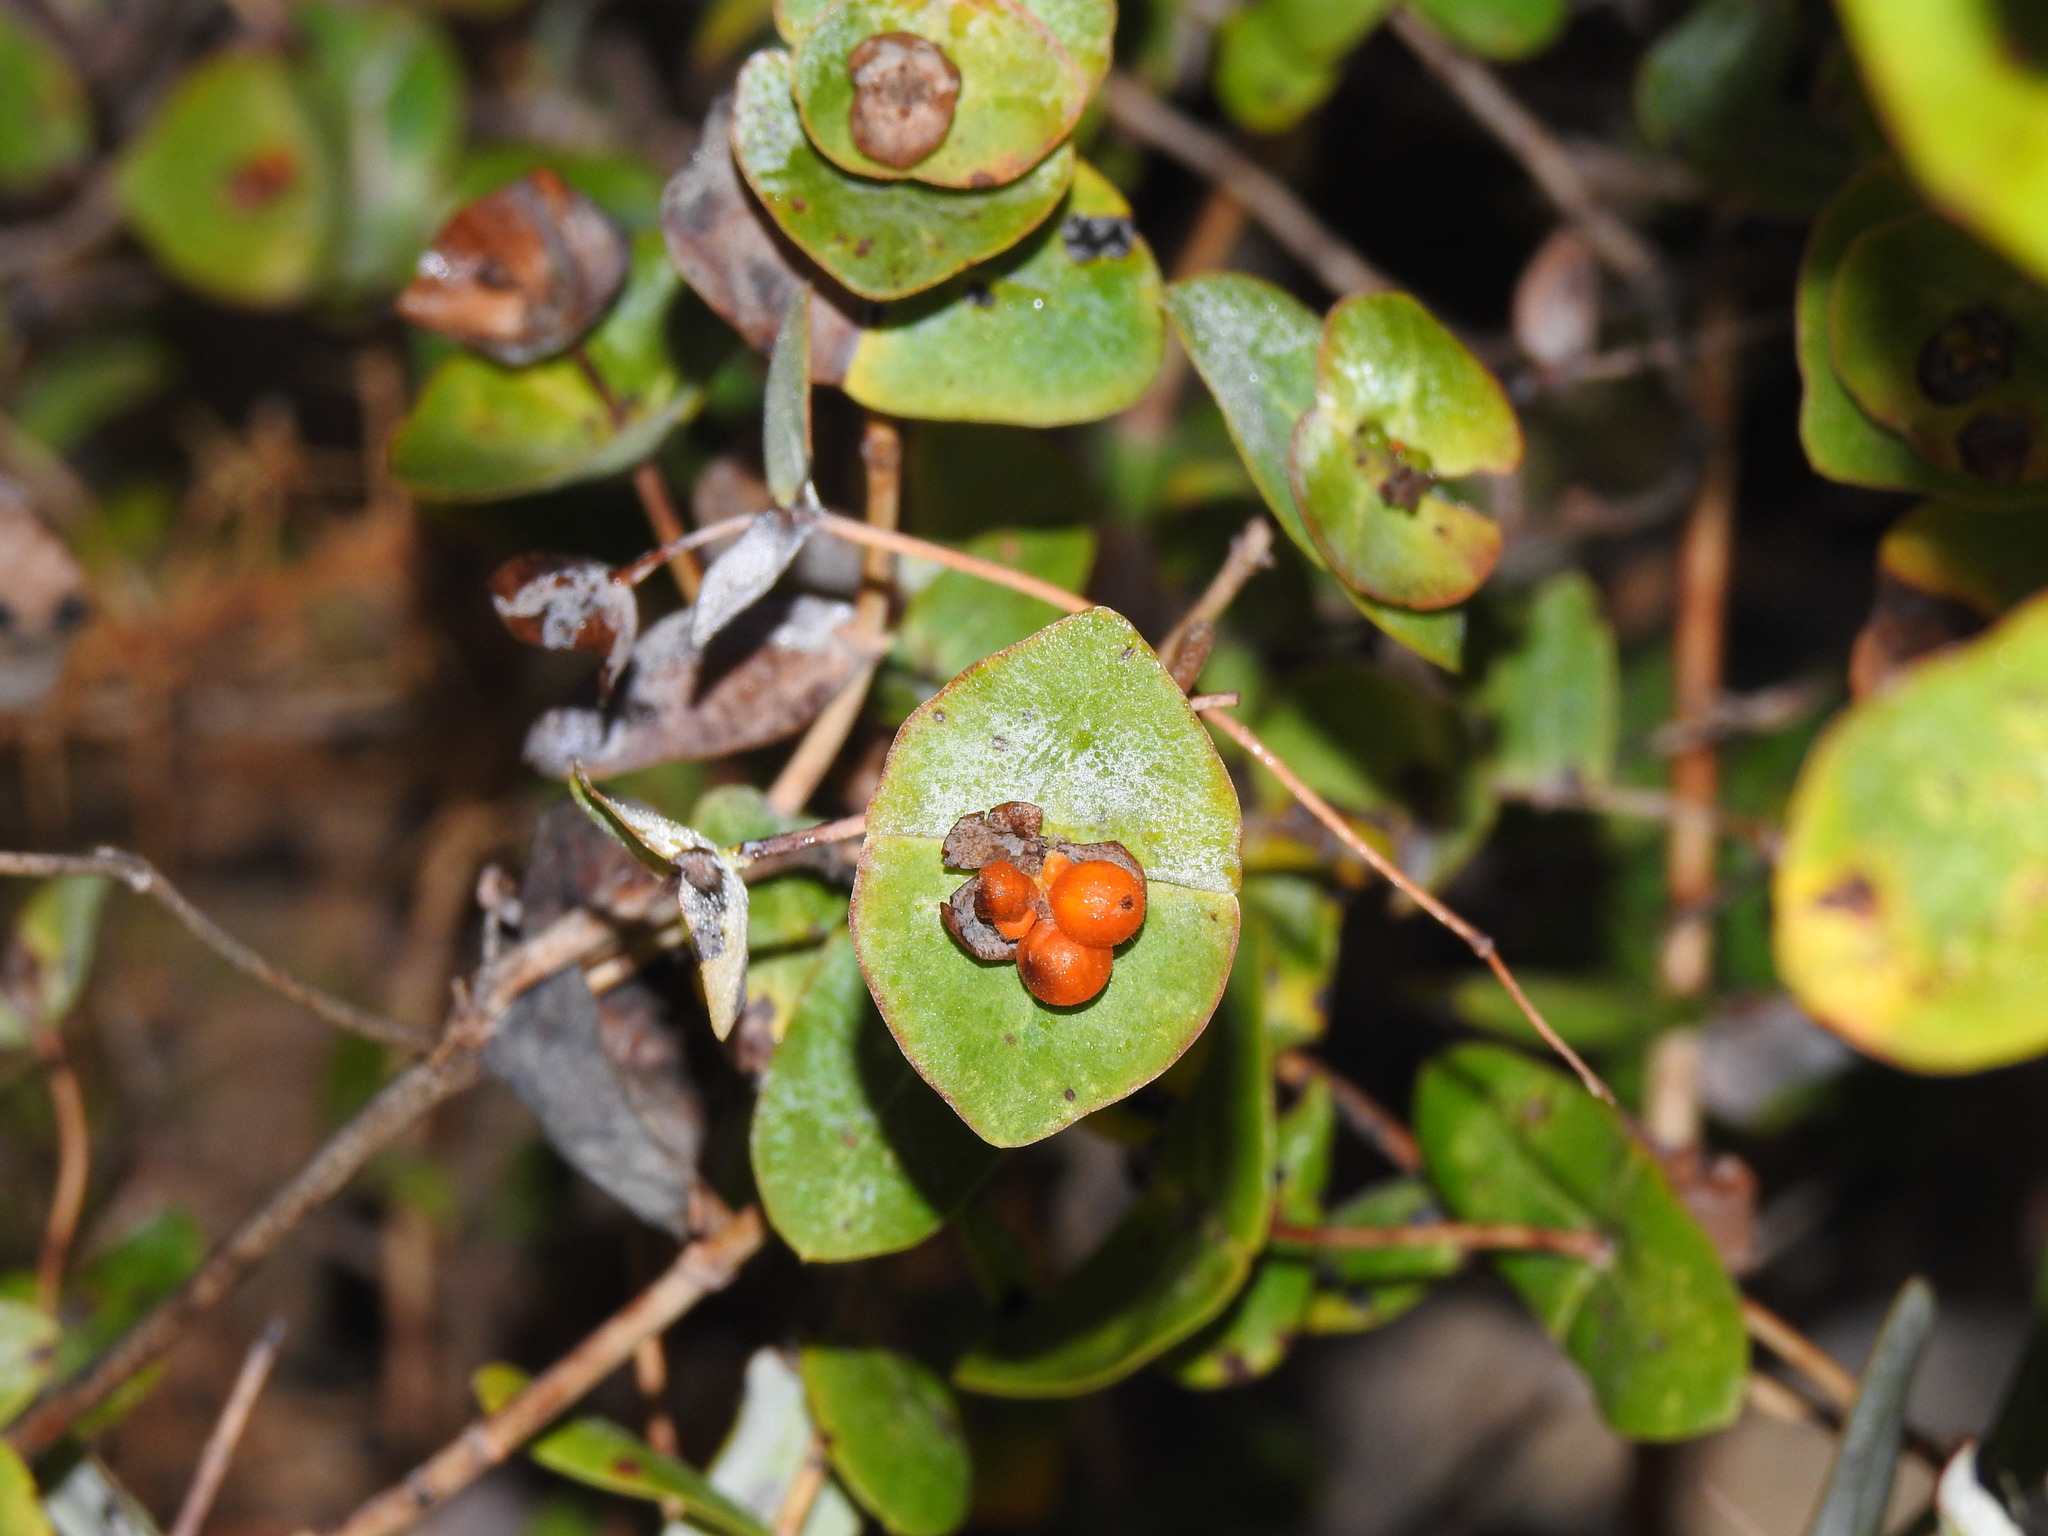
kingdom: Plantae
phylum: Tracheophyta
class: Magnoliopsida
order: Dipsacales
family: Caprifoliaceae
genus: Lonicera
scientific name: Lonicera implexa
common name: Minorca honeysuckle
